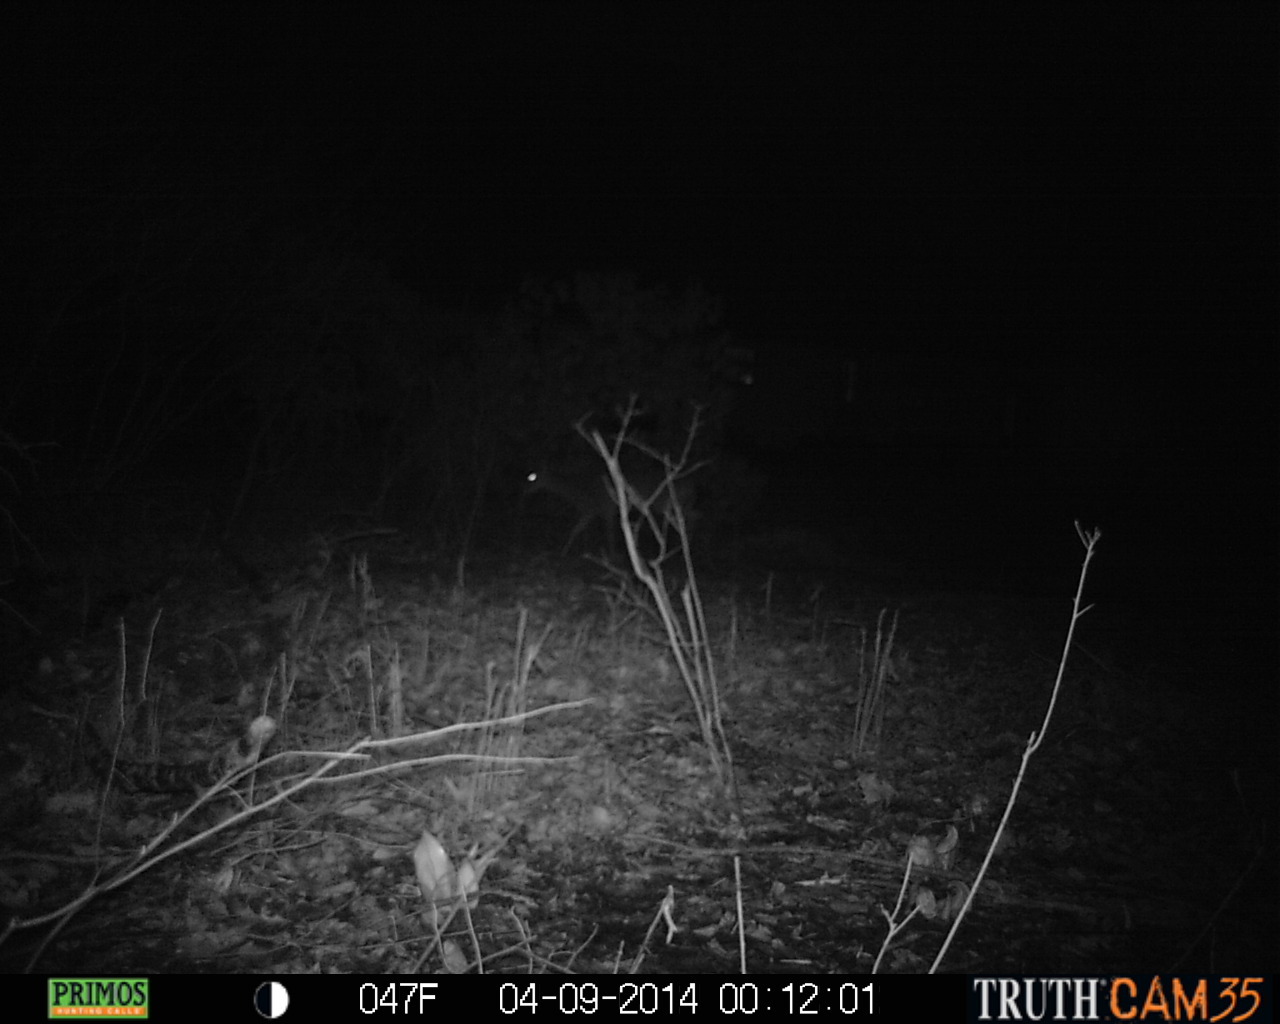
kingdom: Animalia
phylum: Chordata
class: Mammalia
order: Artiodactyla
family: Cervidae
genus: Odocoileus
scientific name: Odocoileus virginianus
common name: White-tailed deer
